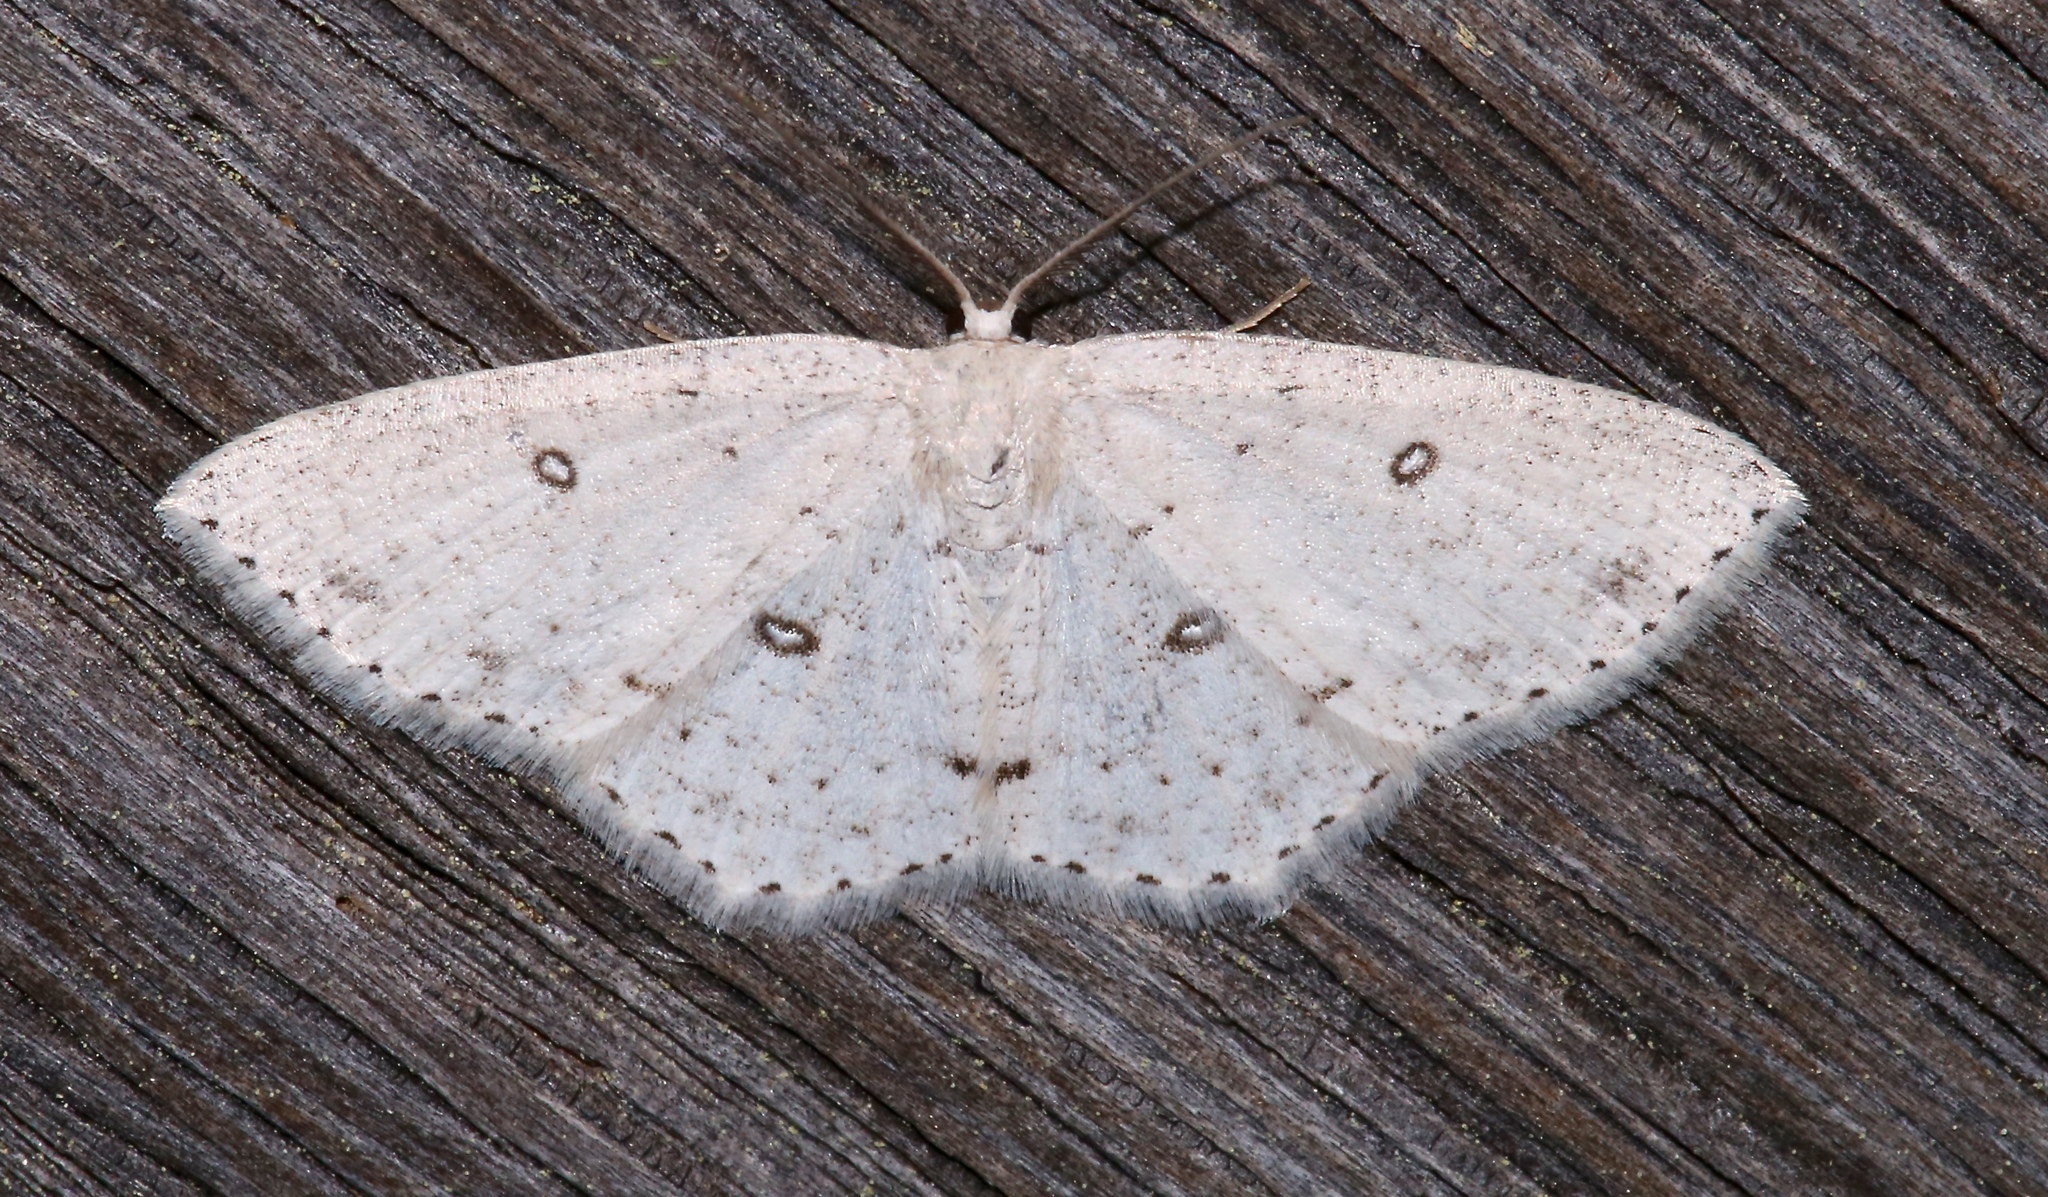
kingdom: Animalia
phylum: Arthropoda
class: Insecta
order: Lepidoptera
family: Geometridae
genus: Cyclophora
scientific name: Cyclophora pendulinaria
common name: Sweet fern geometer
